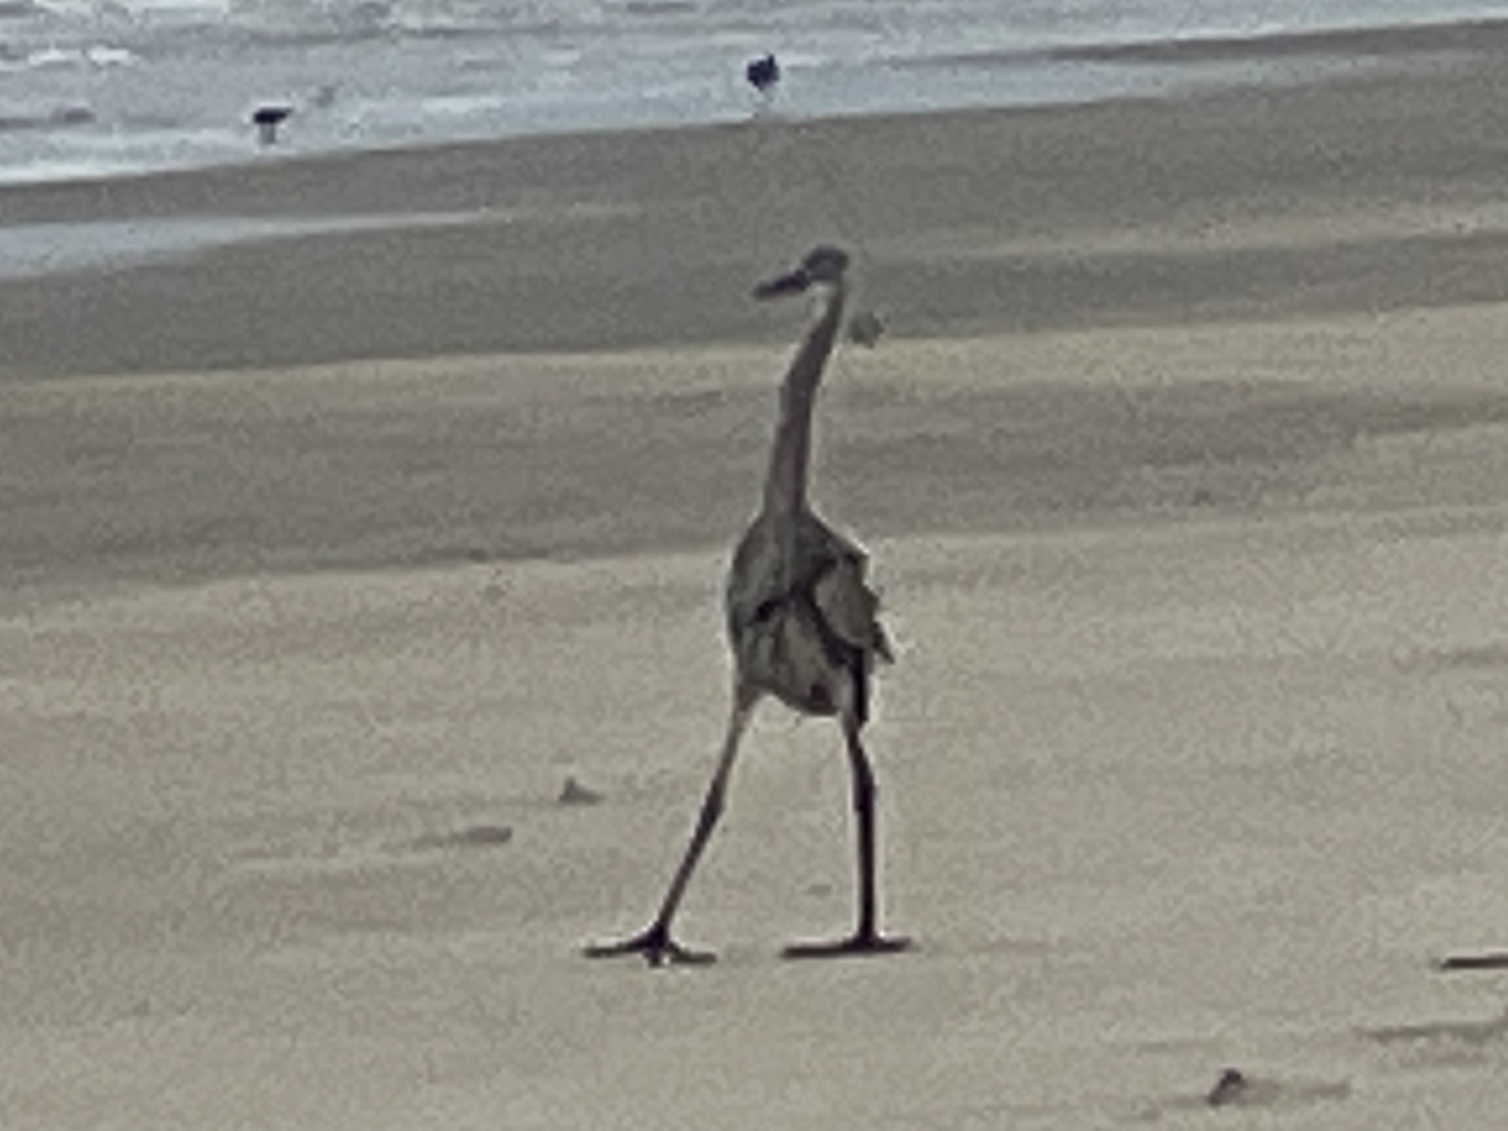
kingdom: Animalia
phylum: Chordata
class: Aves
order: Pelecaniformes
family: Ardeidae
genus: Ardea
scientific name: Ardea herodias
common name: Great blue heron
